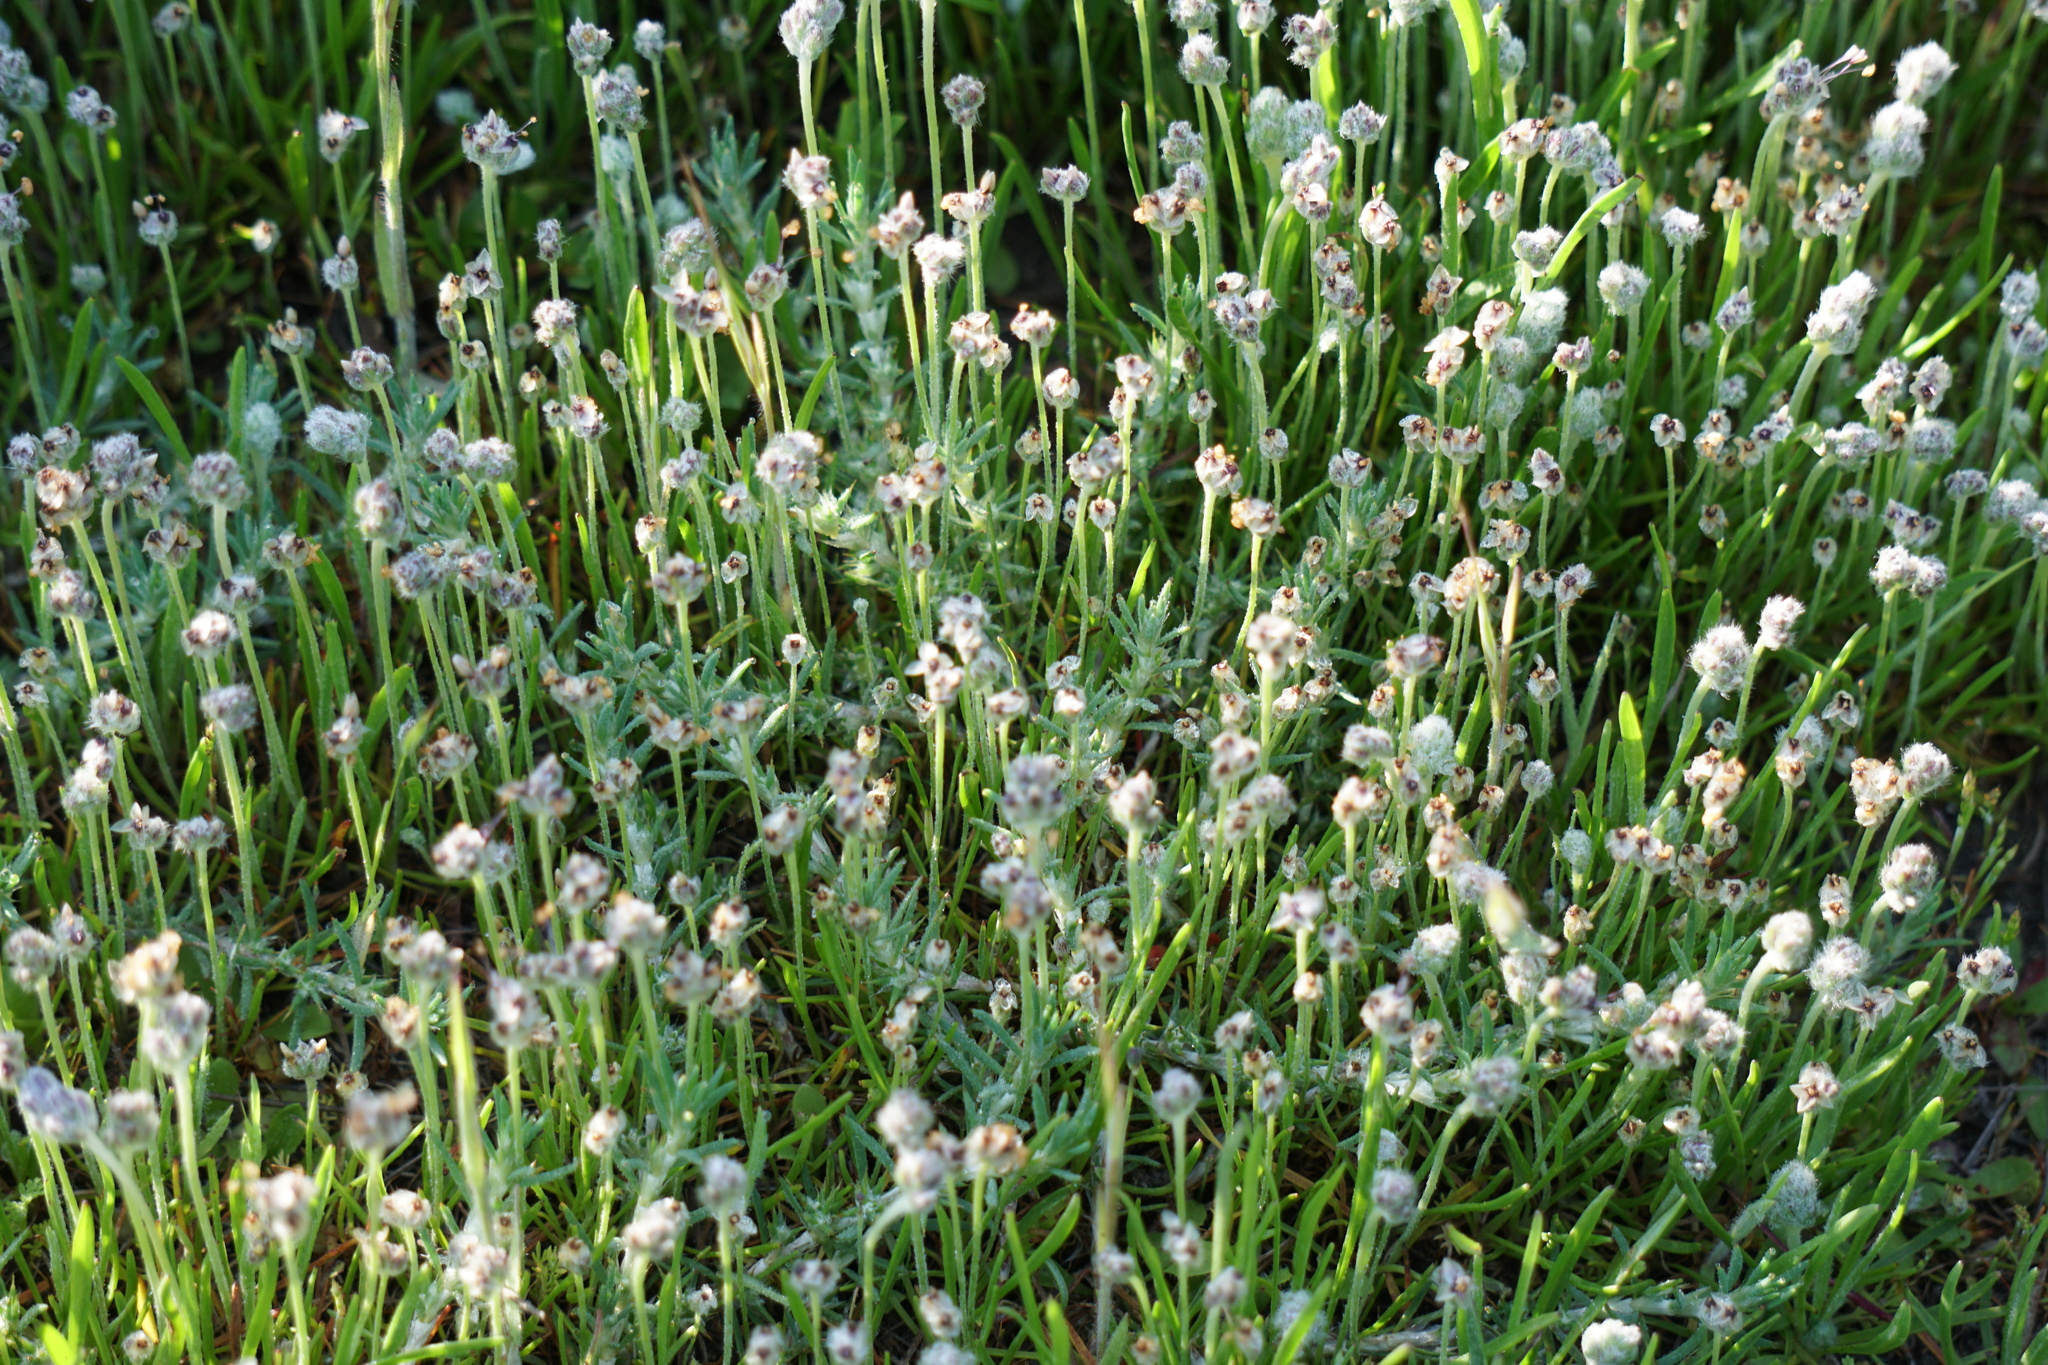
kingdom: Plantae
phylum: Tracheophyta
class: Magnoliopsida
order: Lamiales
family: Plantaginaceae
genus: Plantago
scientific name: Plantago erecta
